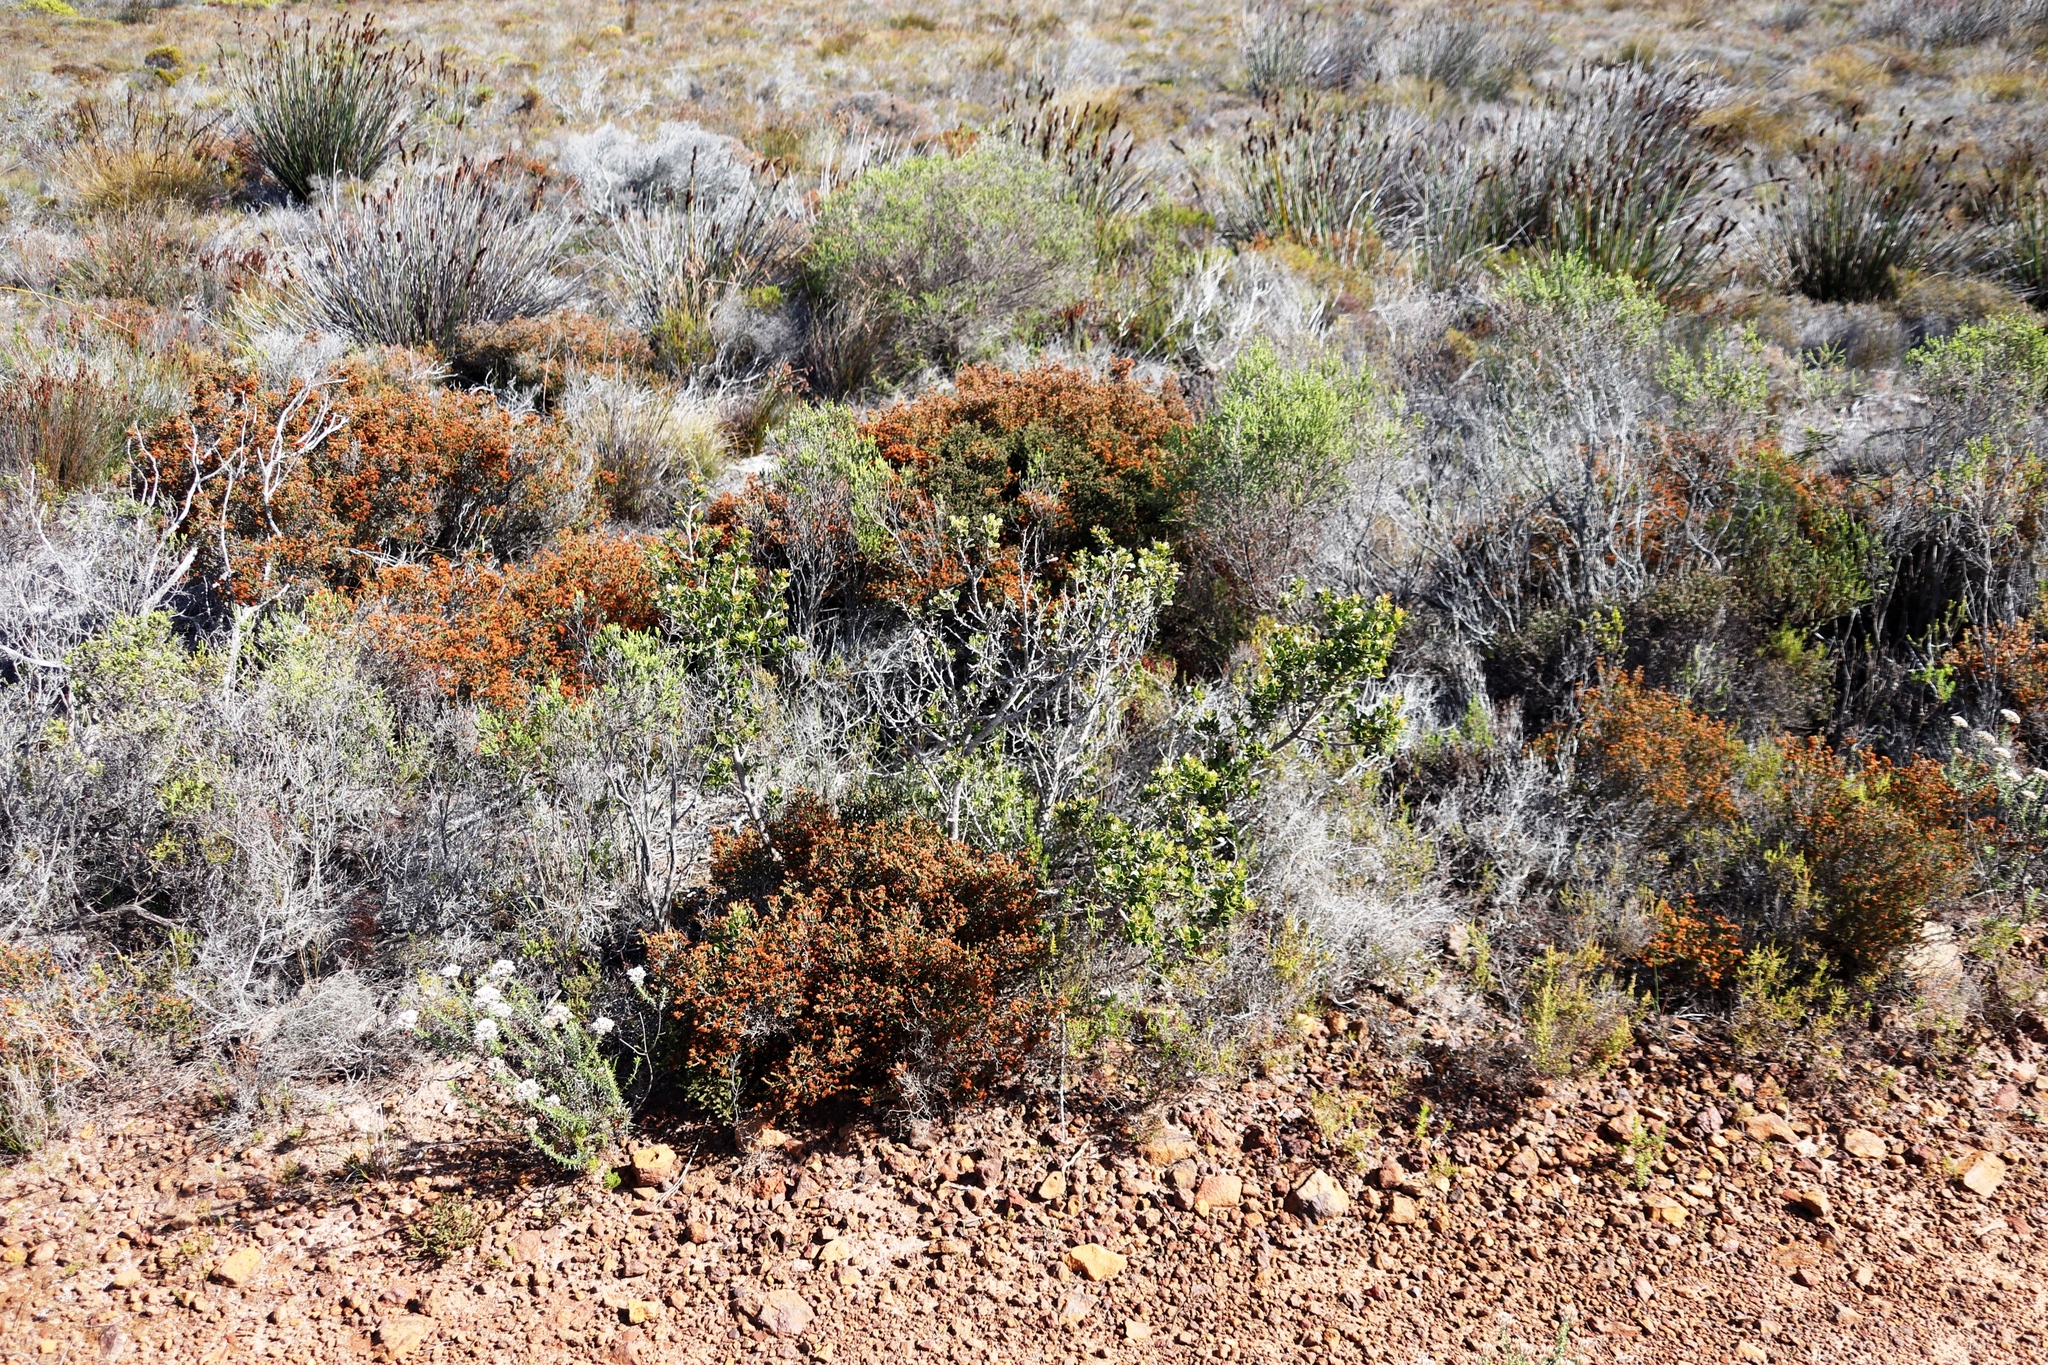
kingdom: Plantae
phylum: Tracheophyta
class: Magnoliopsida
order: Sapindales
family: Anacardiaceae
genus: Searsia
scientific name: Searsia lucida
